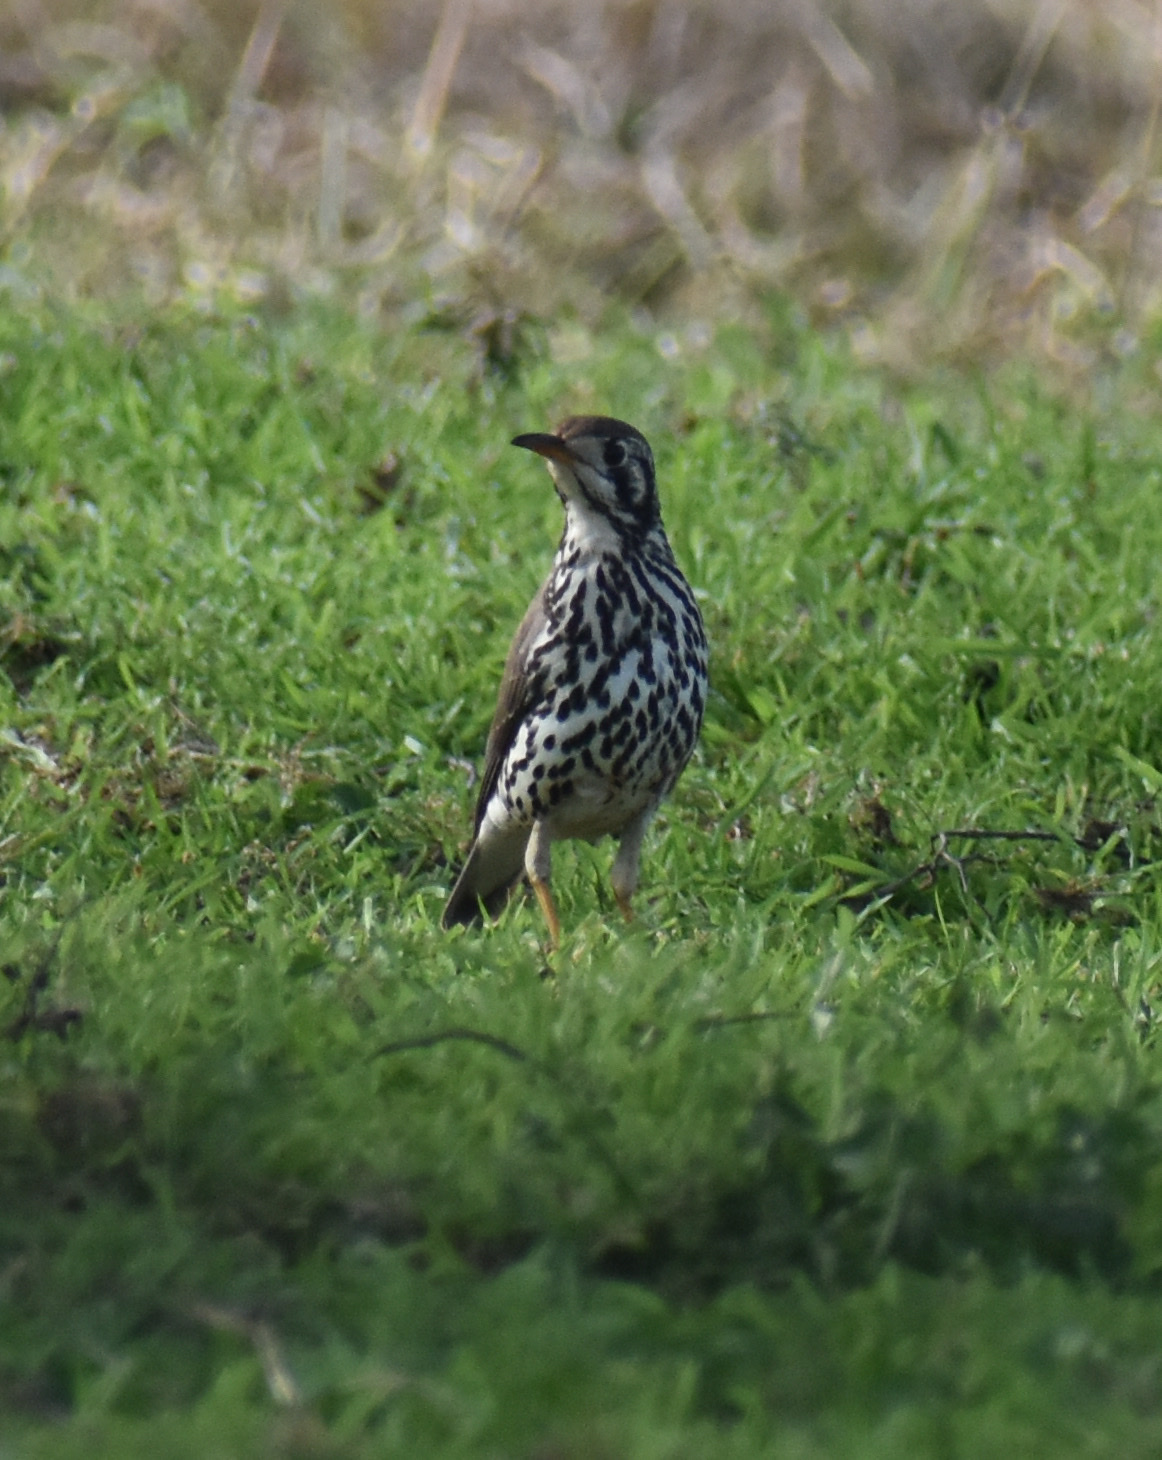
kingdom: Animalia
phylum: Chordata
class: Aves
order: Passeriformes
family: Turdidae
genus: Psophocichla
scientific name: Psophocichla litsitsirupa
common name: Groundscraper thrush
